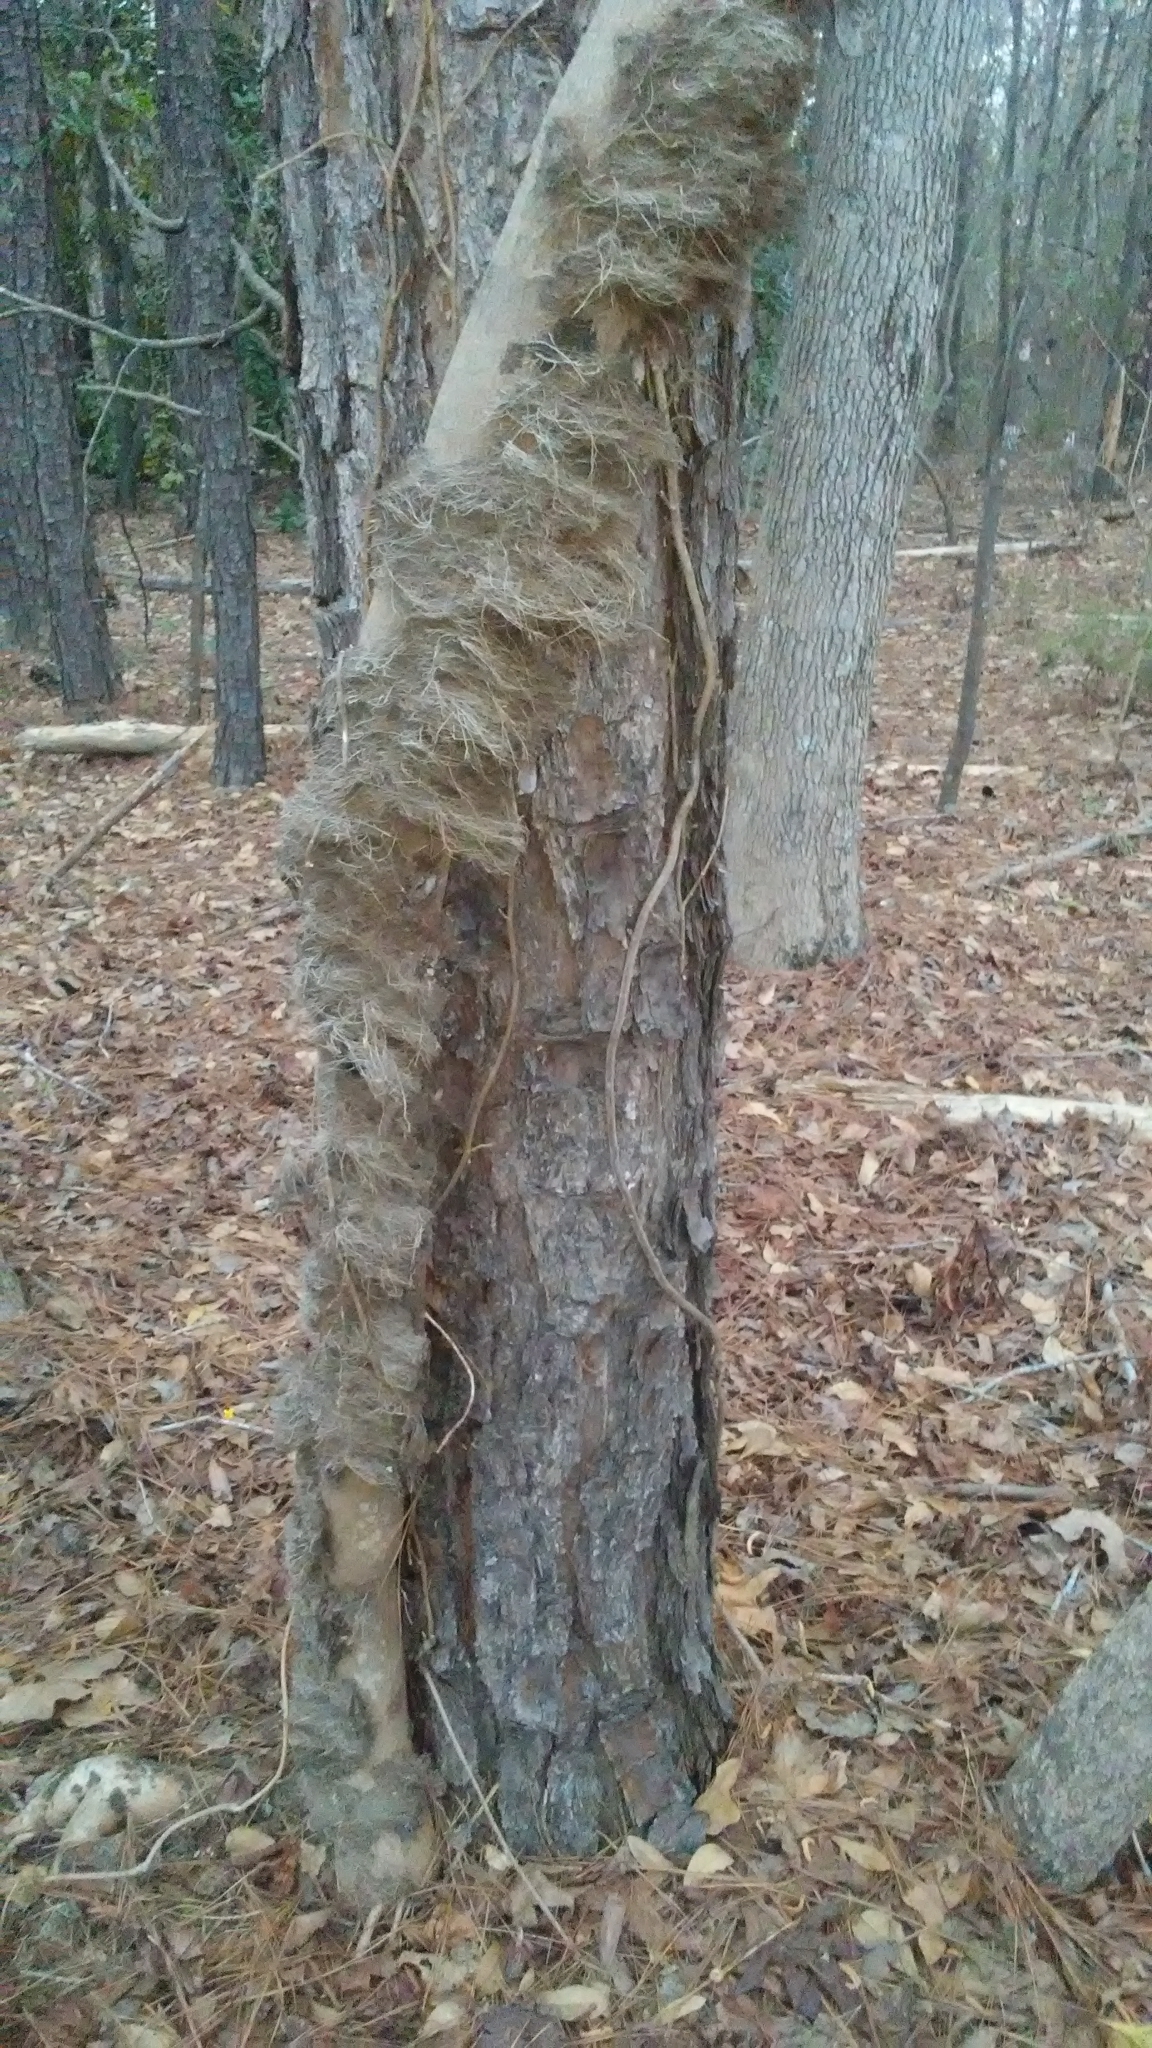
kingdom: Plantae
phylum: Tracheophyta
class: Magnoliopsida
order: Sapindales
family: Anacardiaceae
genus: Toxicodendron
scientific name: Toxicodendron radicans
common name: Poison ivy
